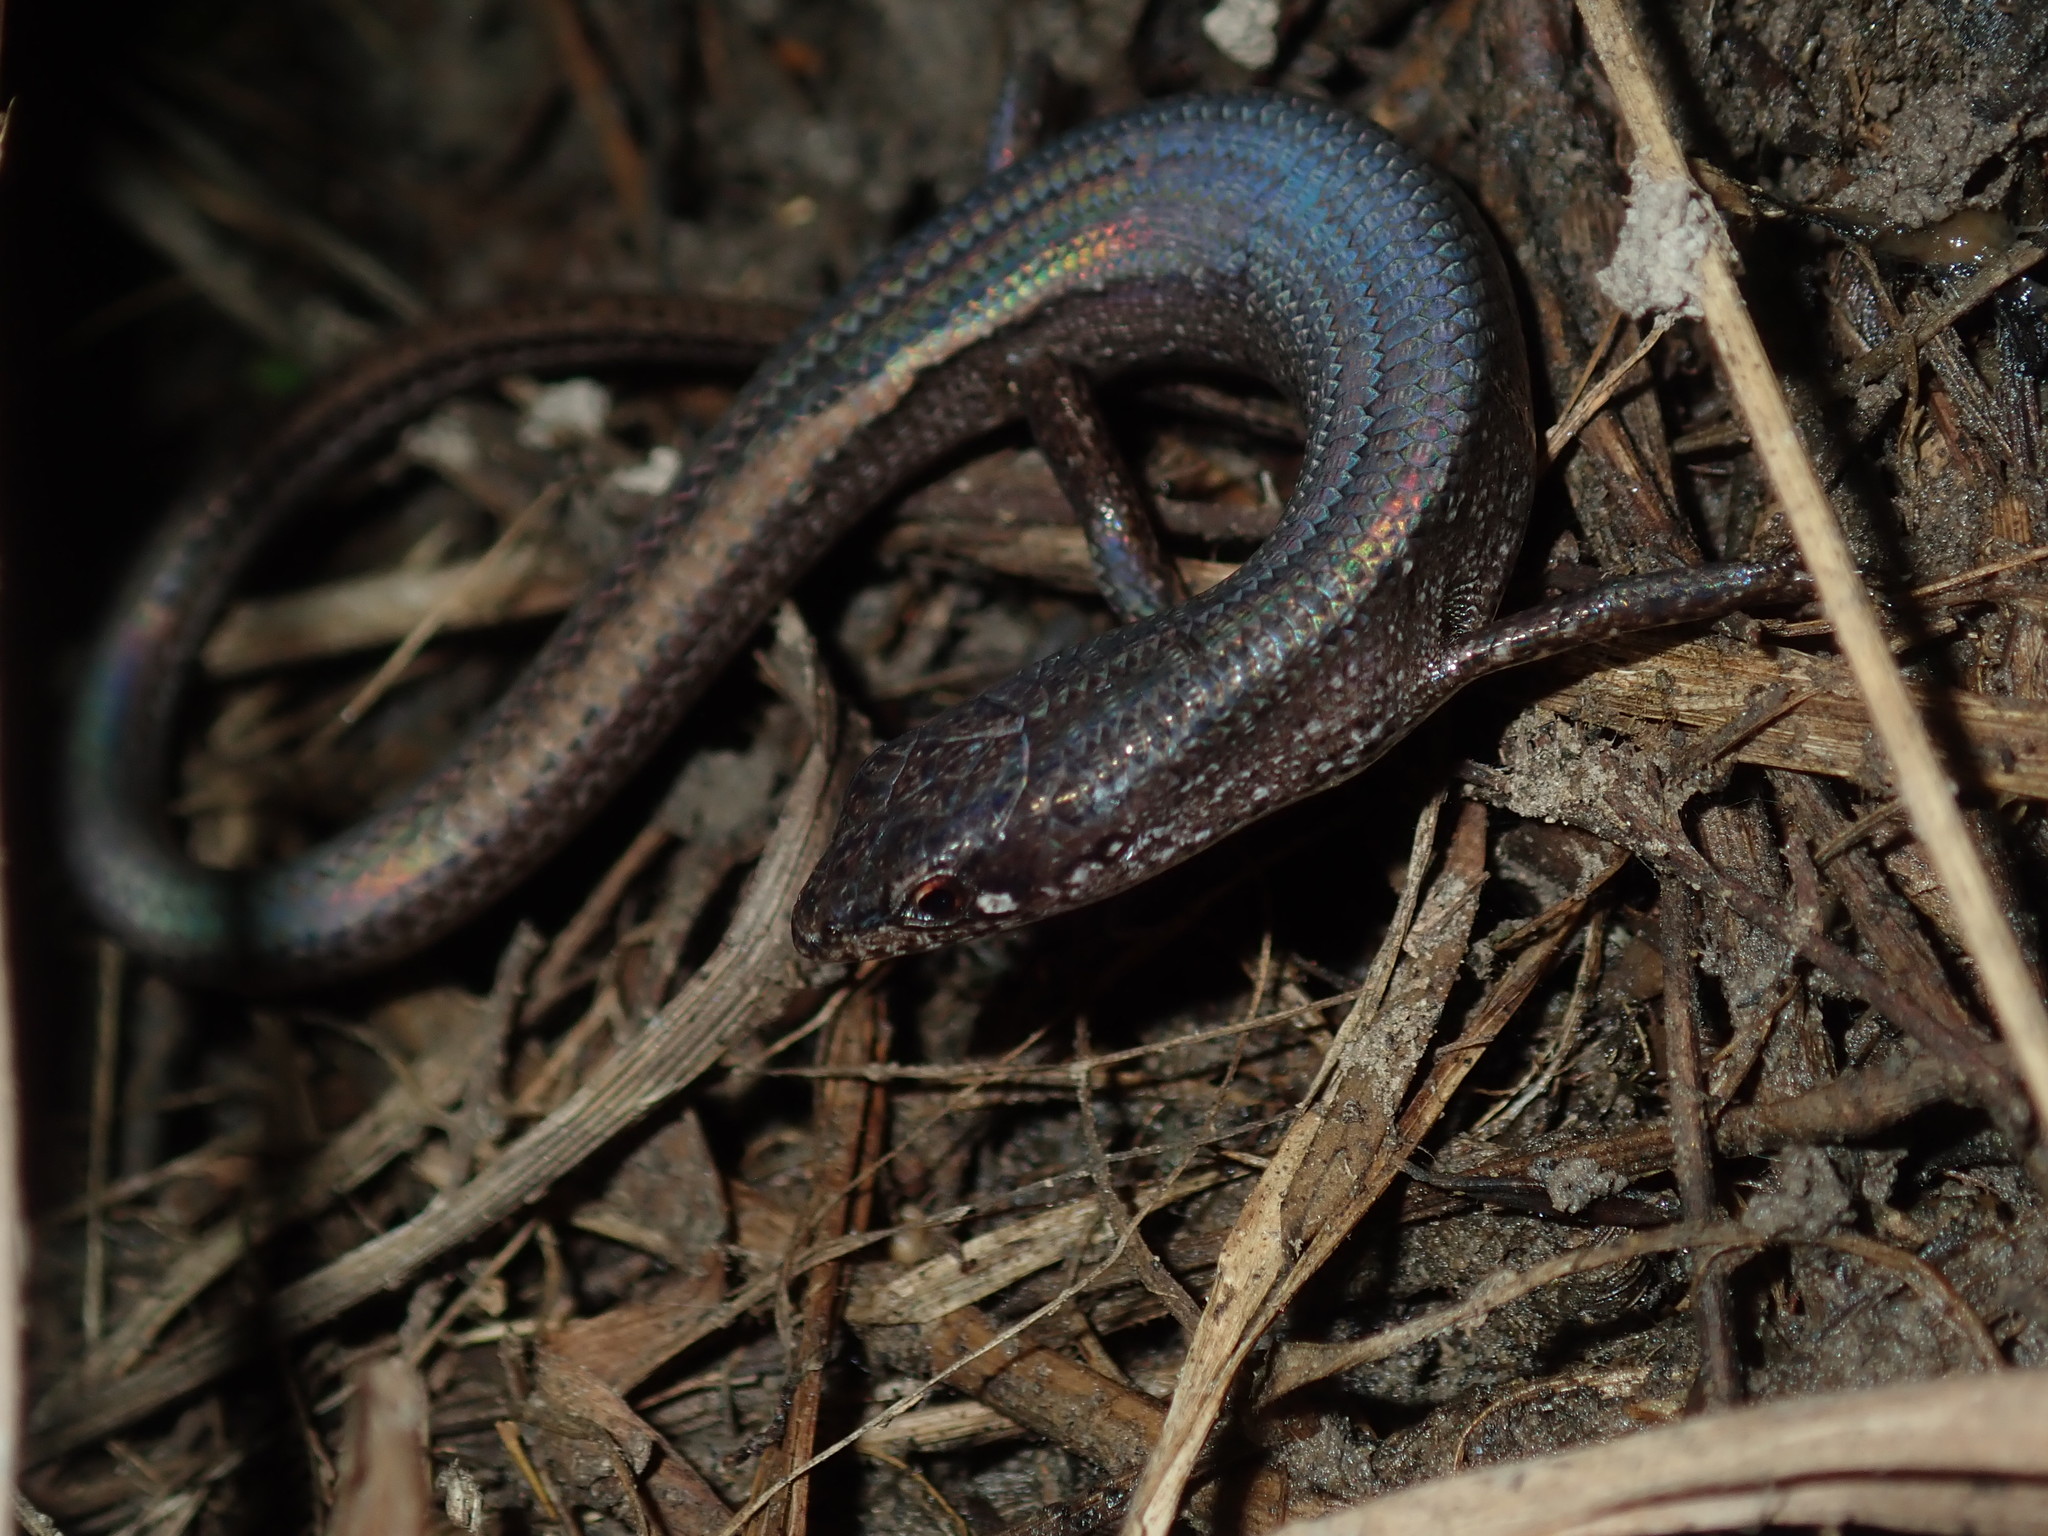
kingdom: Animalia
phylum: Chordata
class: Squamata
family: Scincidae
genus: Saproscincus
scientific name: Saproscincus mustelinus
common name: Southern weasel skink
